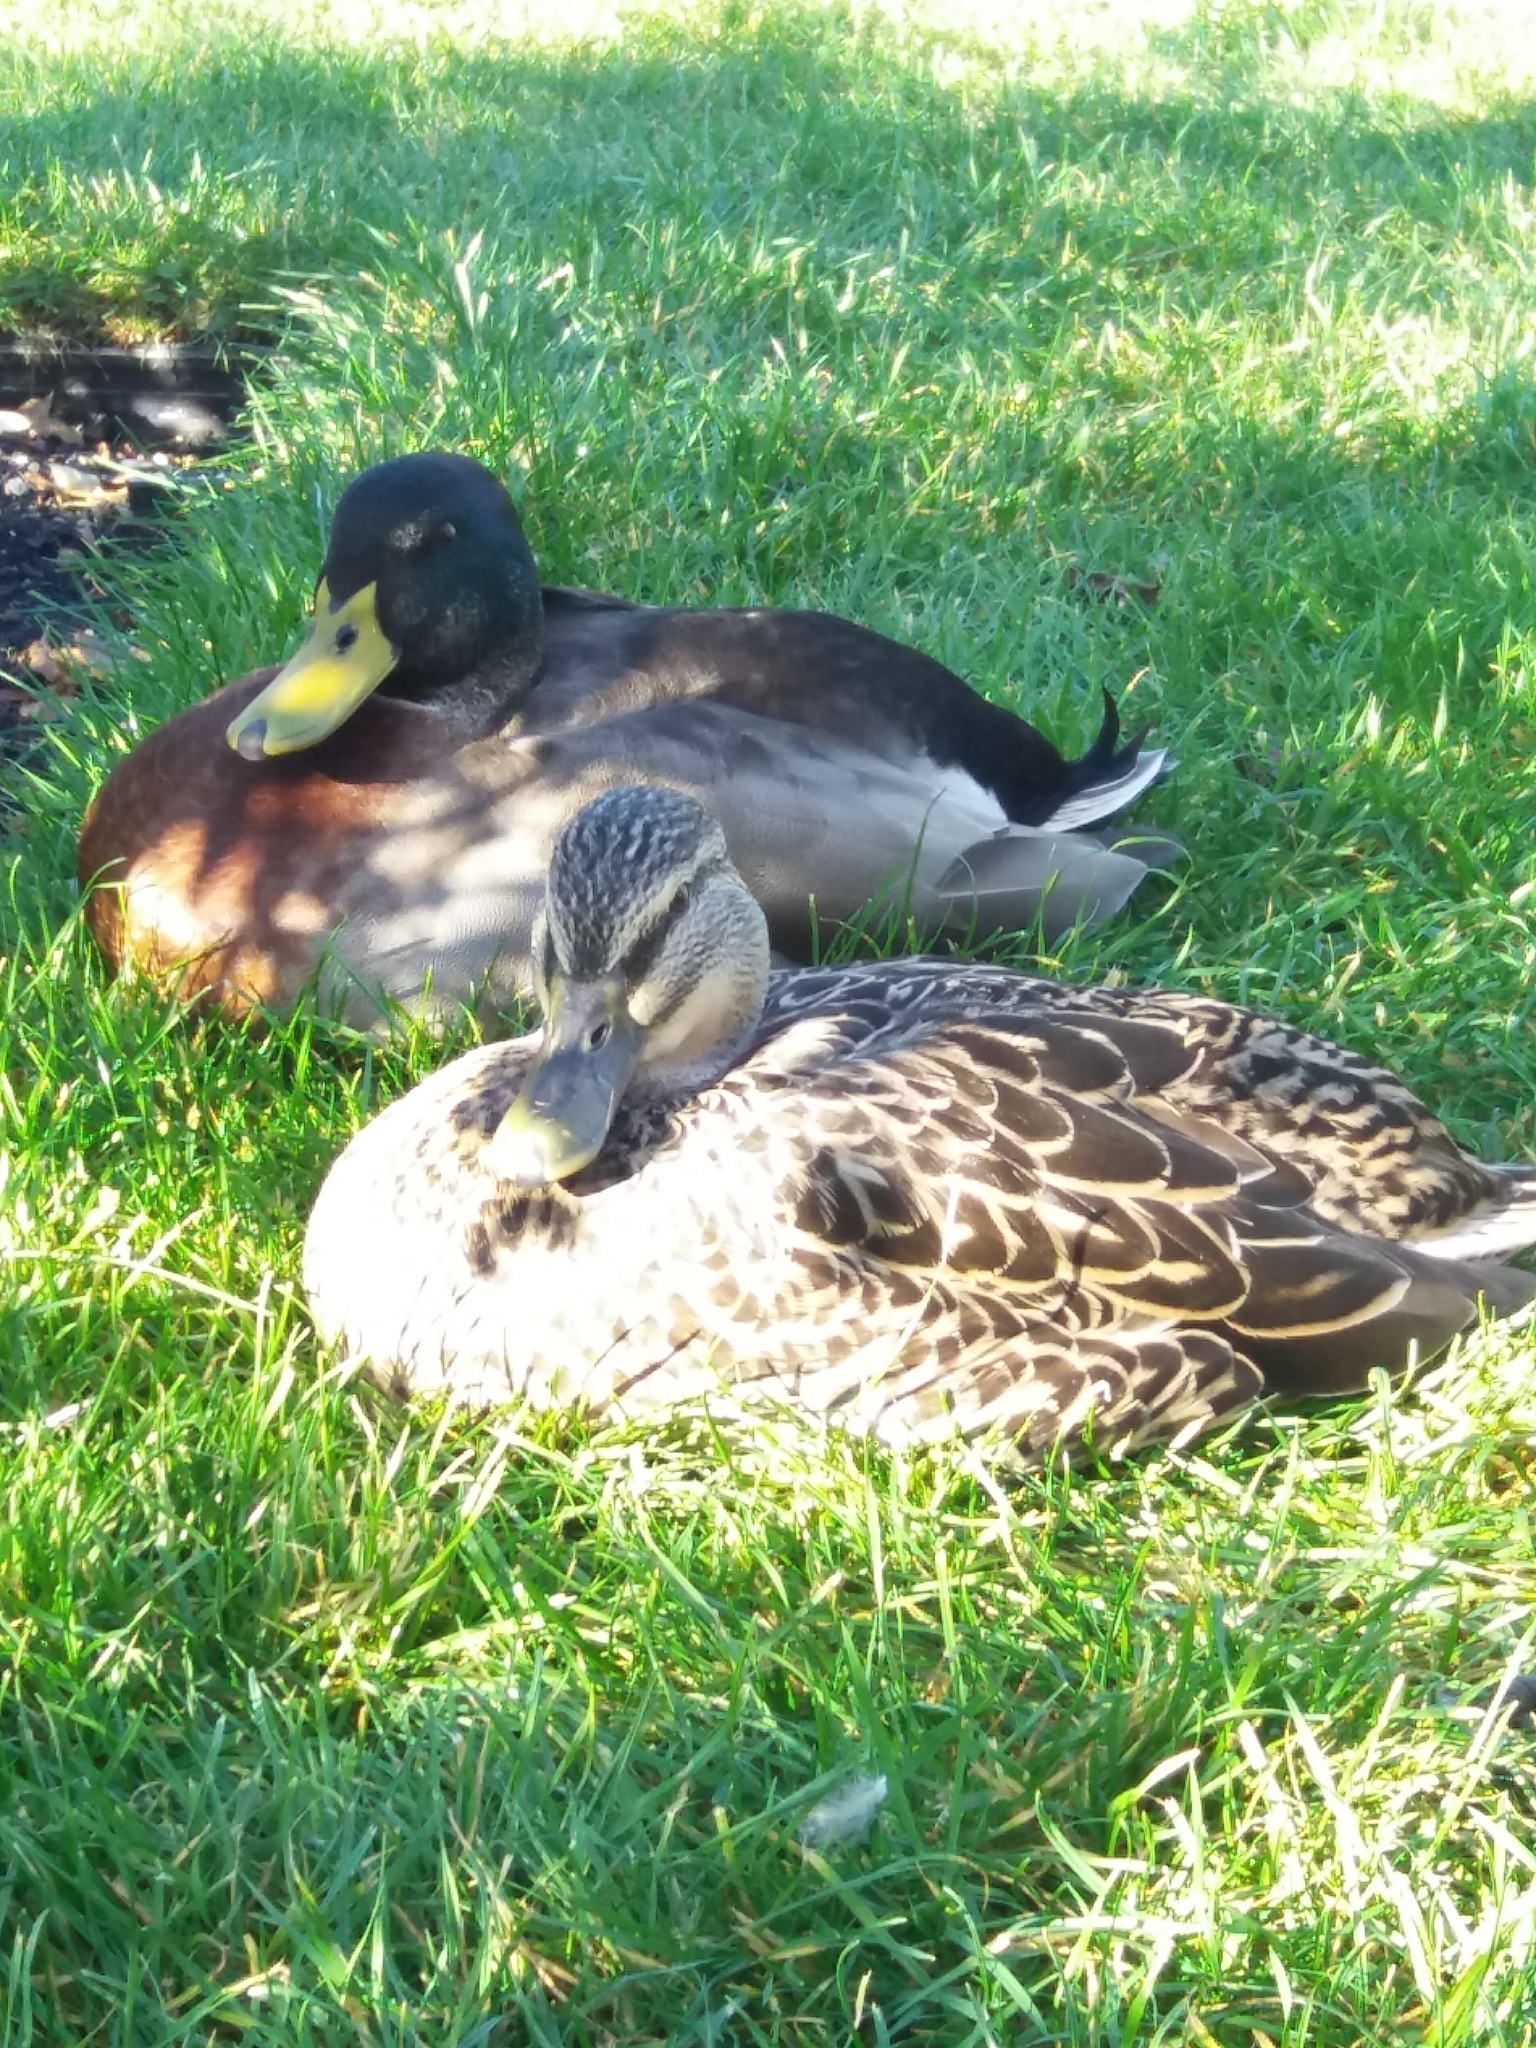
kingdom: Animalia
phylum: Chordata
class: Aves
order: Anseriformes
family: Anatidae
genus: Anas
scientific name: Anas platyrhynchos
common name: Mallard
